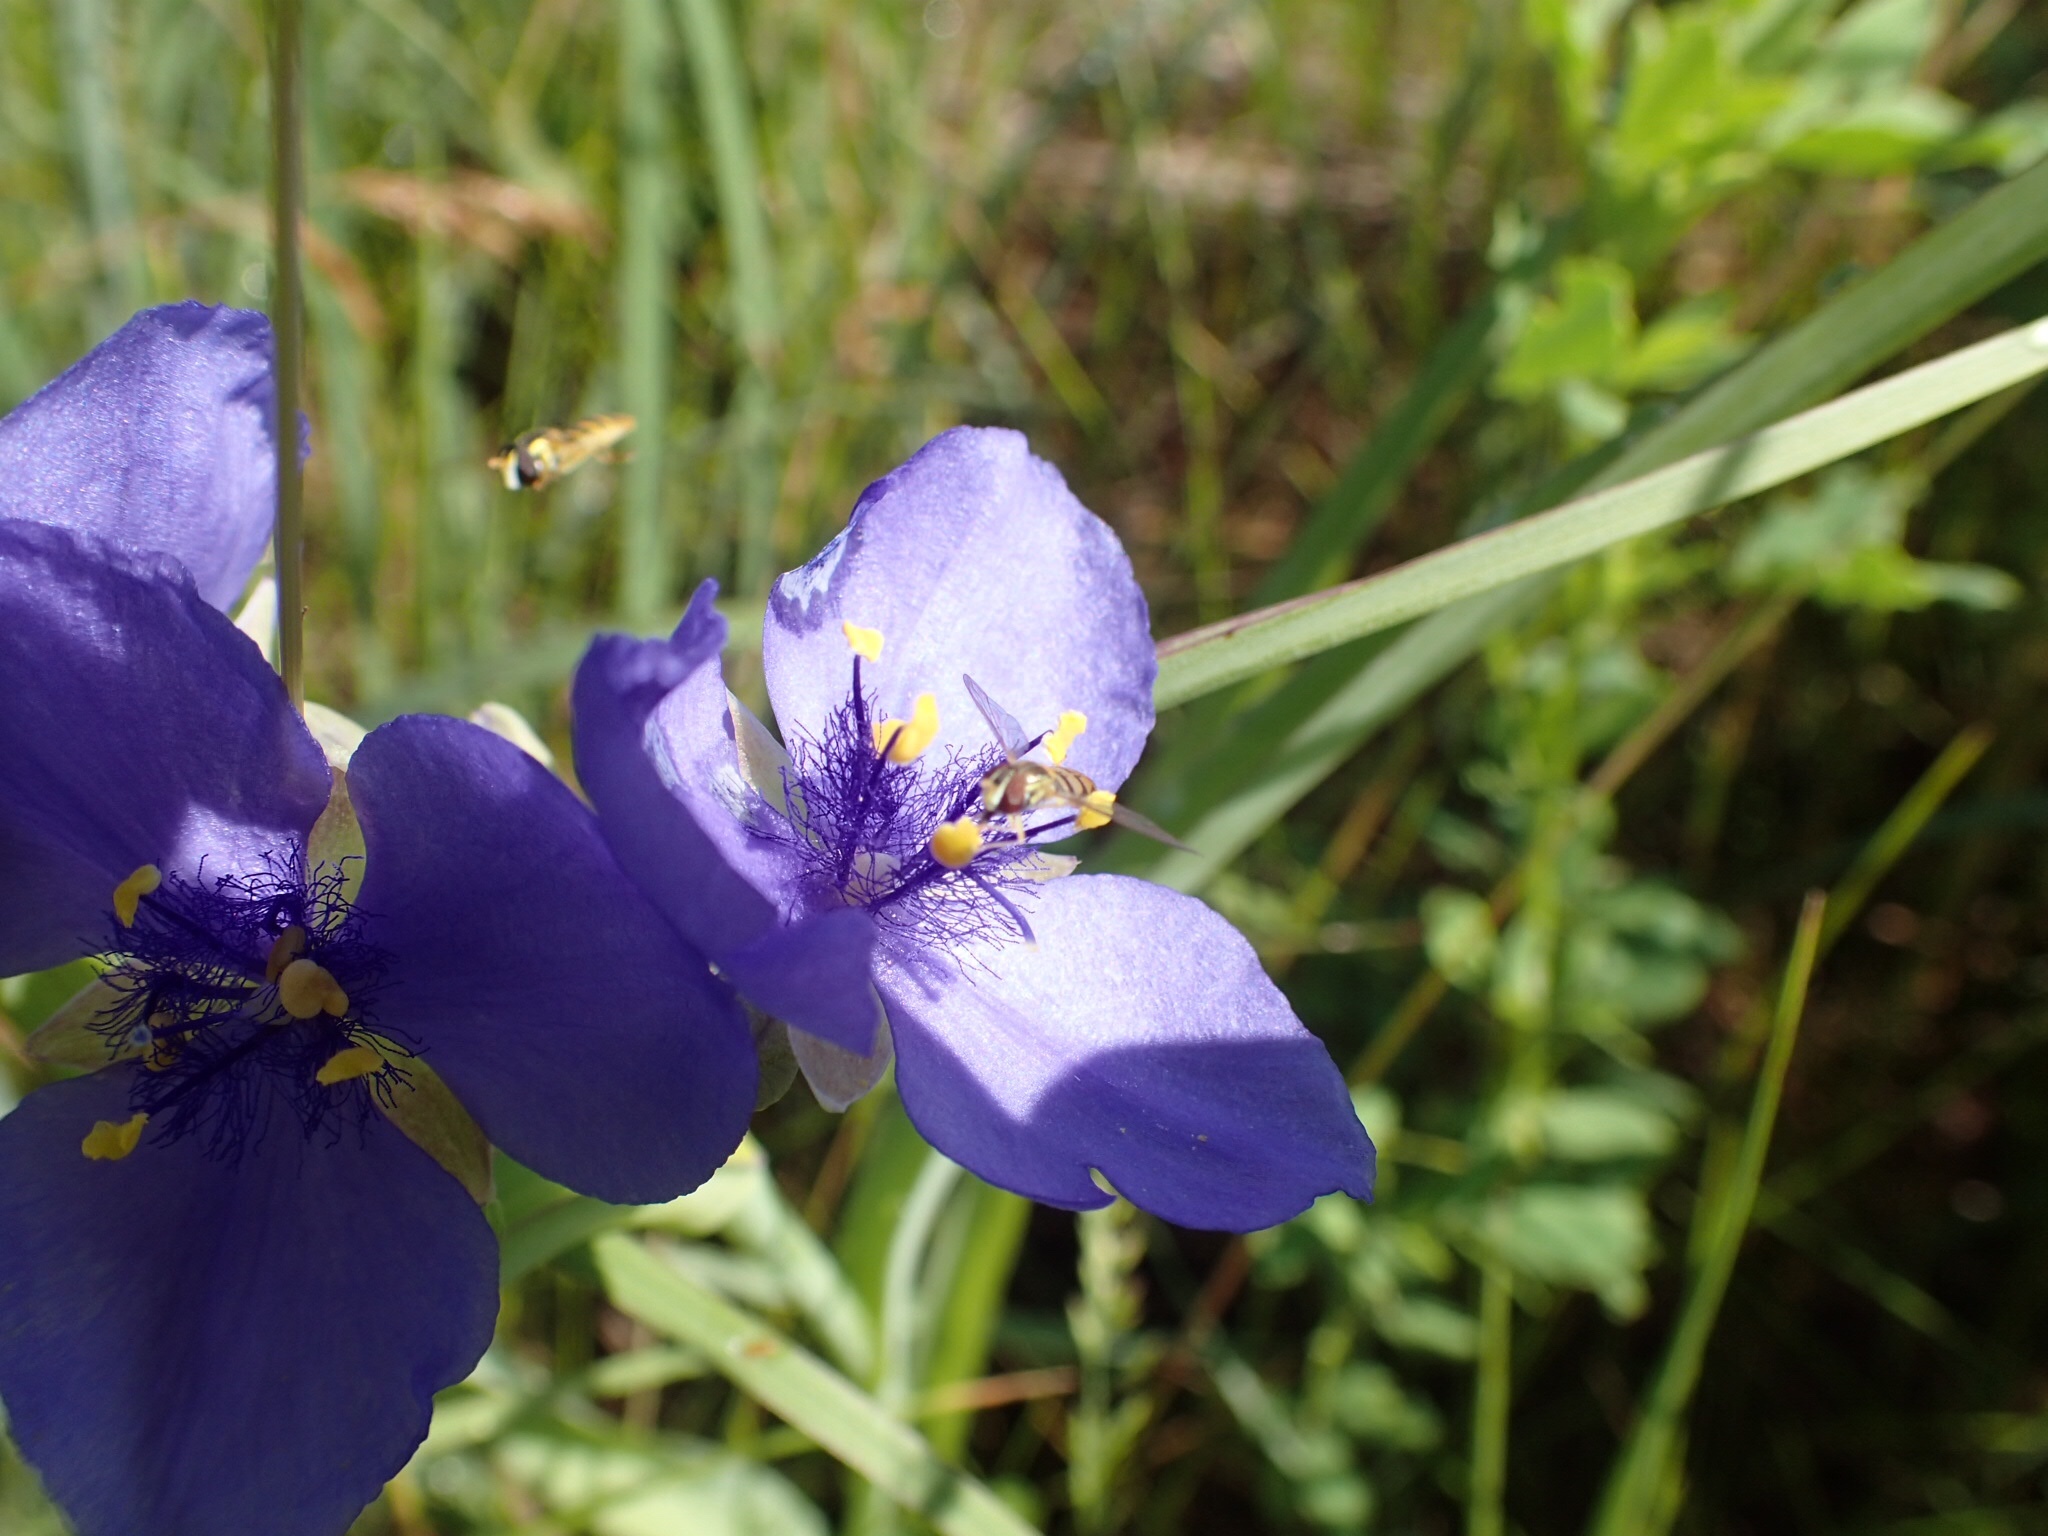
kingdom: Plantae
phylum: Tracheophyta
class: Liliopsida
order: Commelinales
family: Commelinaceae
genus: Tradescantia
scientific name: Tradescantia ohiensis
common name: Ohio spiderwort
